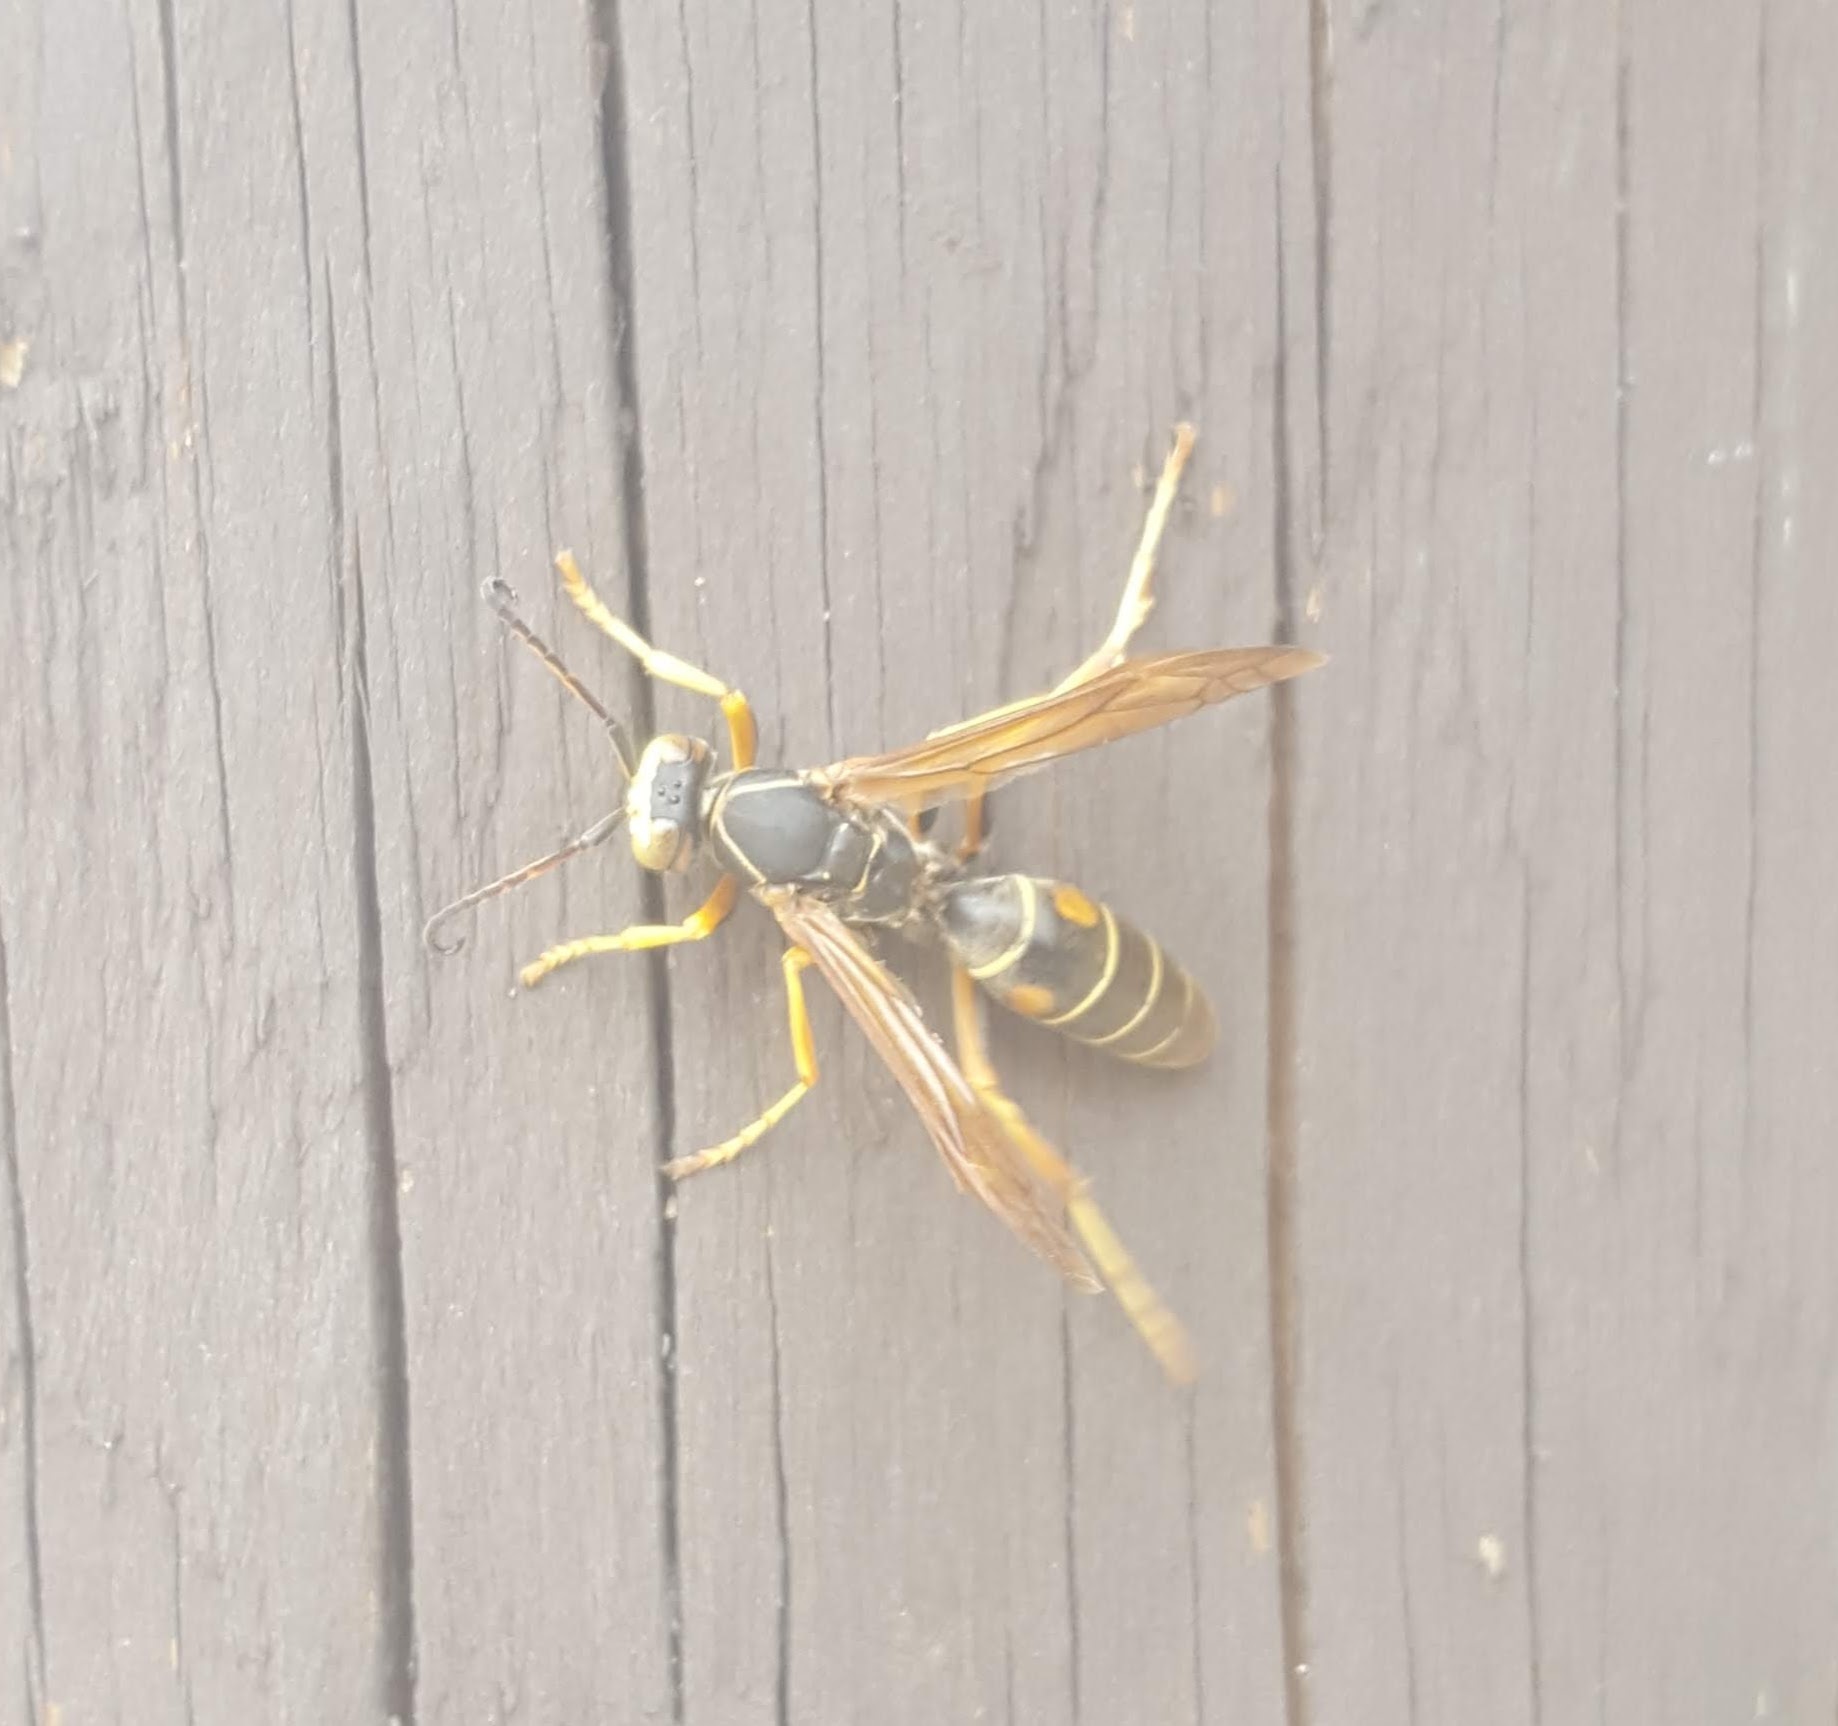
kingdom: Animalia
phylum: Arthropoda
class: Insecta
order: Hymenoptera
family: Eumenidae
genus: Polistes
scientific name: Polistes fuscatus
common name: Dark paper wasp
